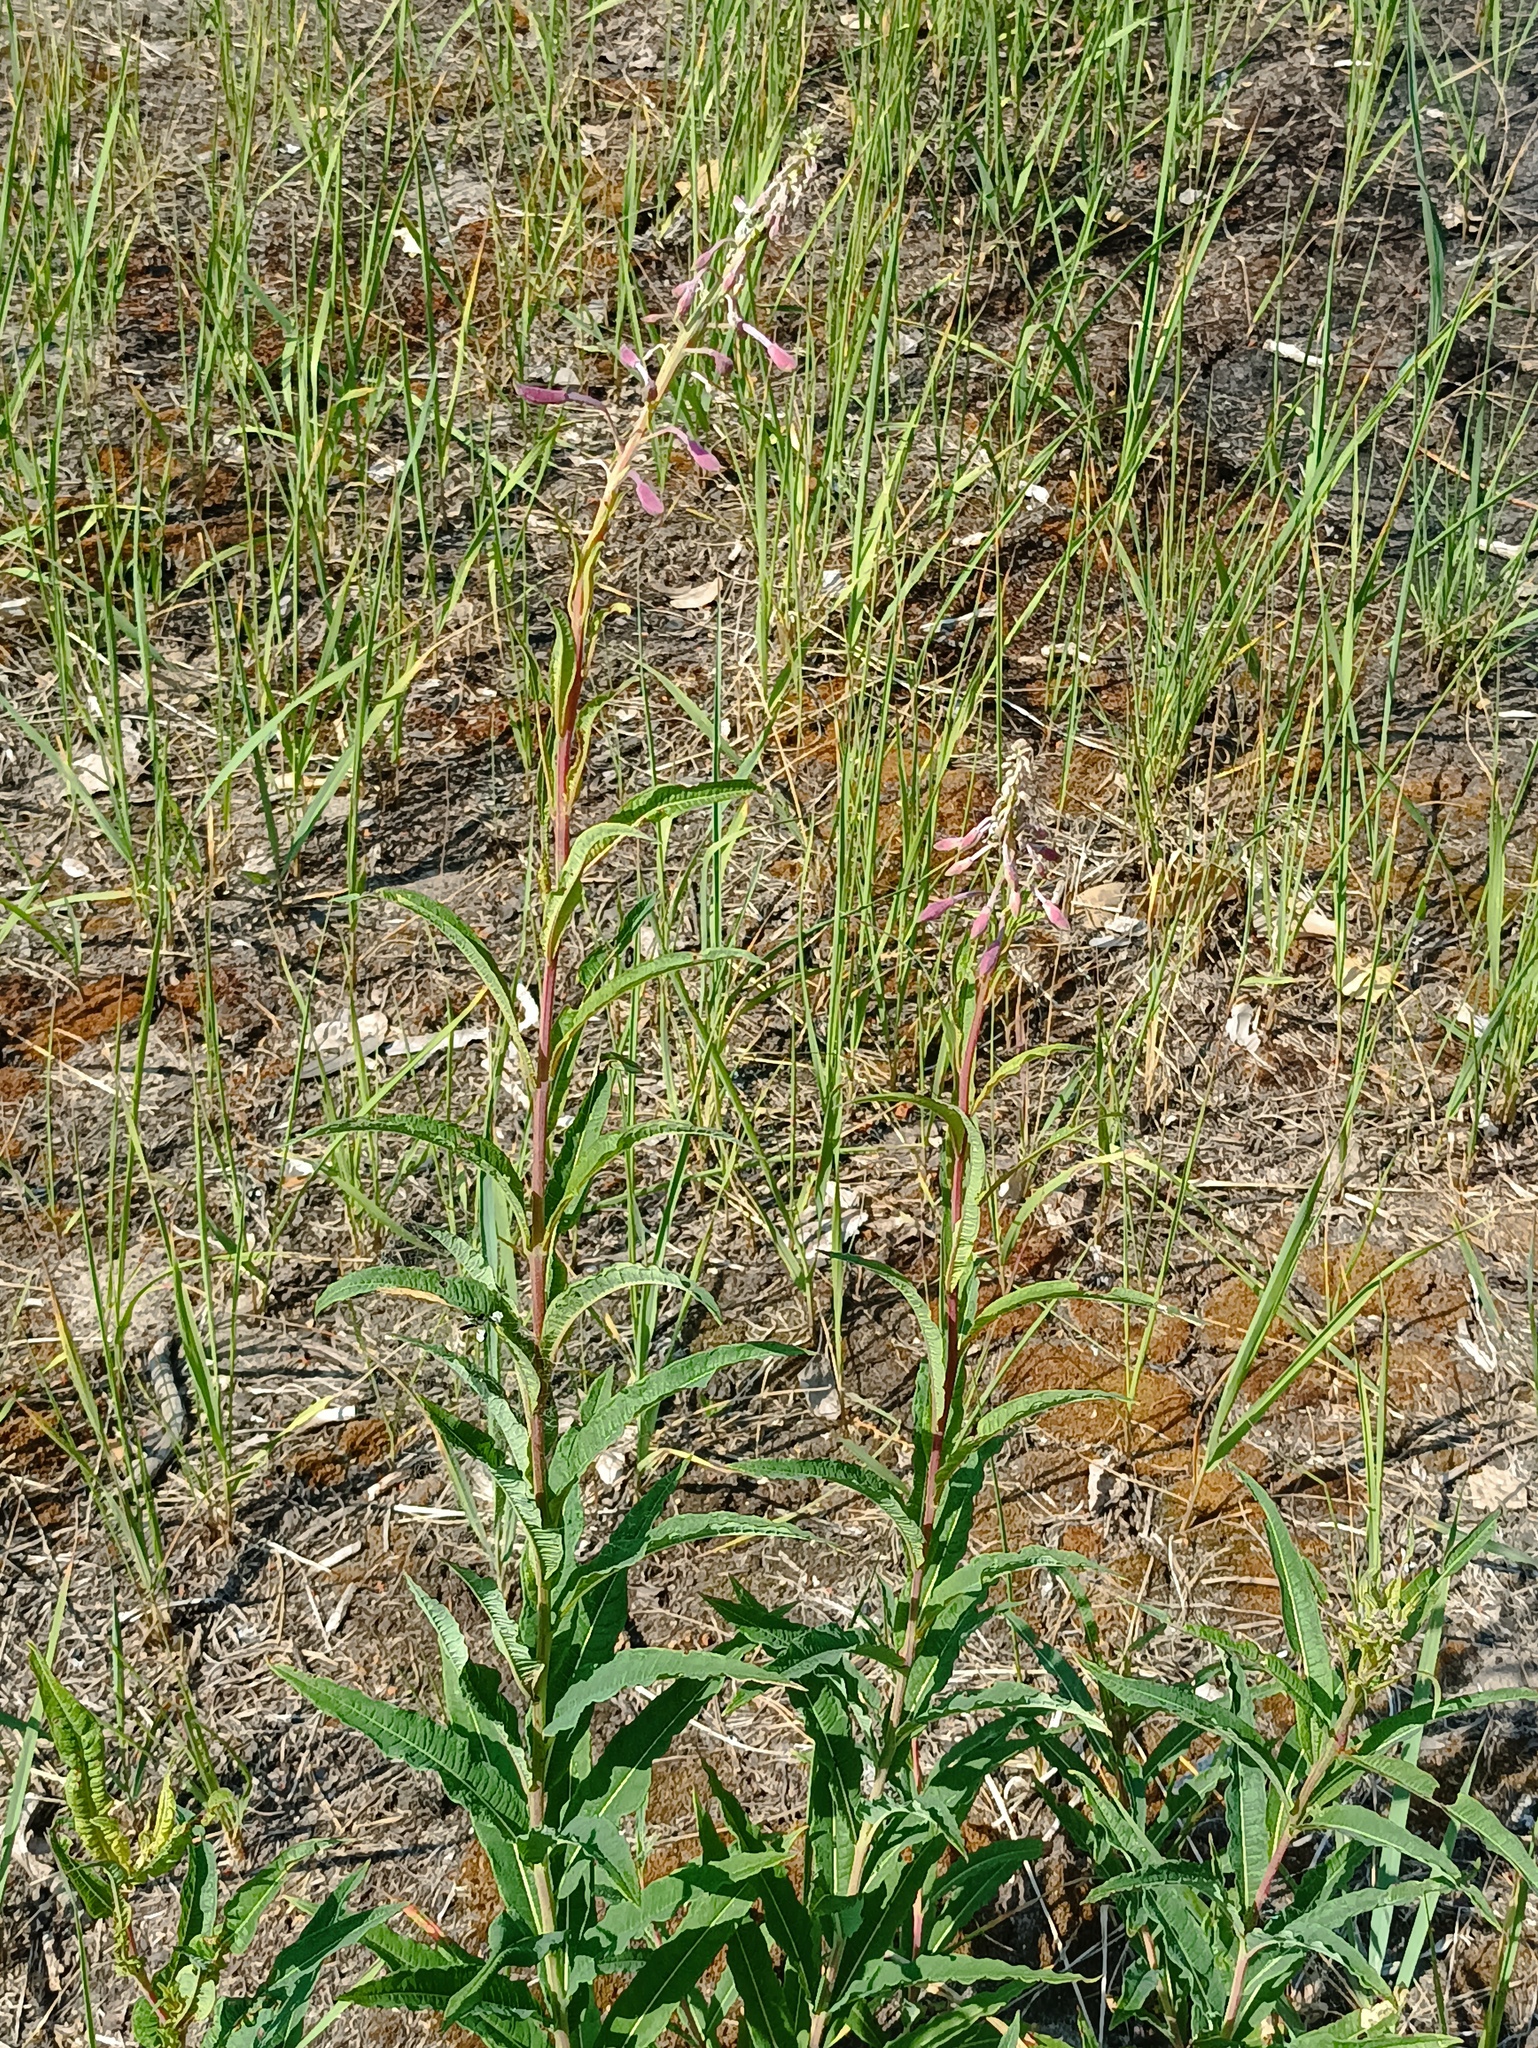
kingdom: Plantae
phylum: Tracheophyta
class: Magnoliopsida
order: Myrtales
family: Onagraceae
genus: Chamaenerion
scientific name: Chamaenerion angustifolium
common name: Fireweed
